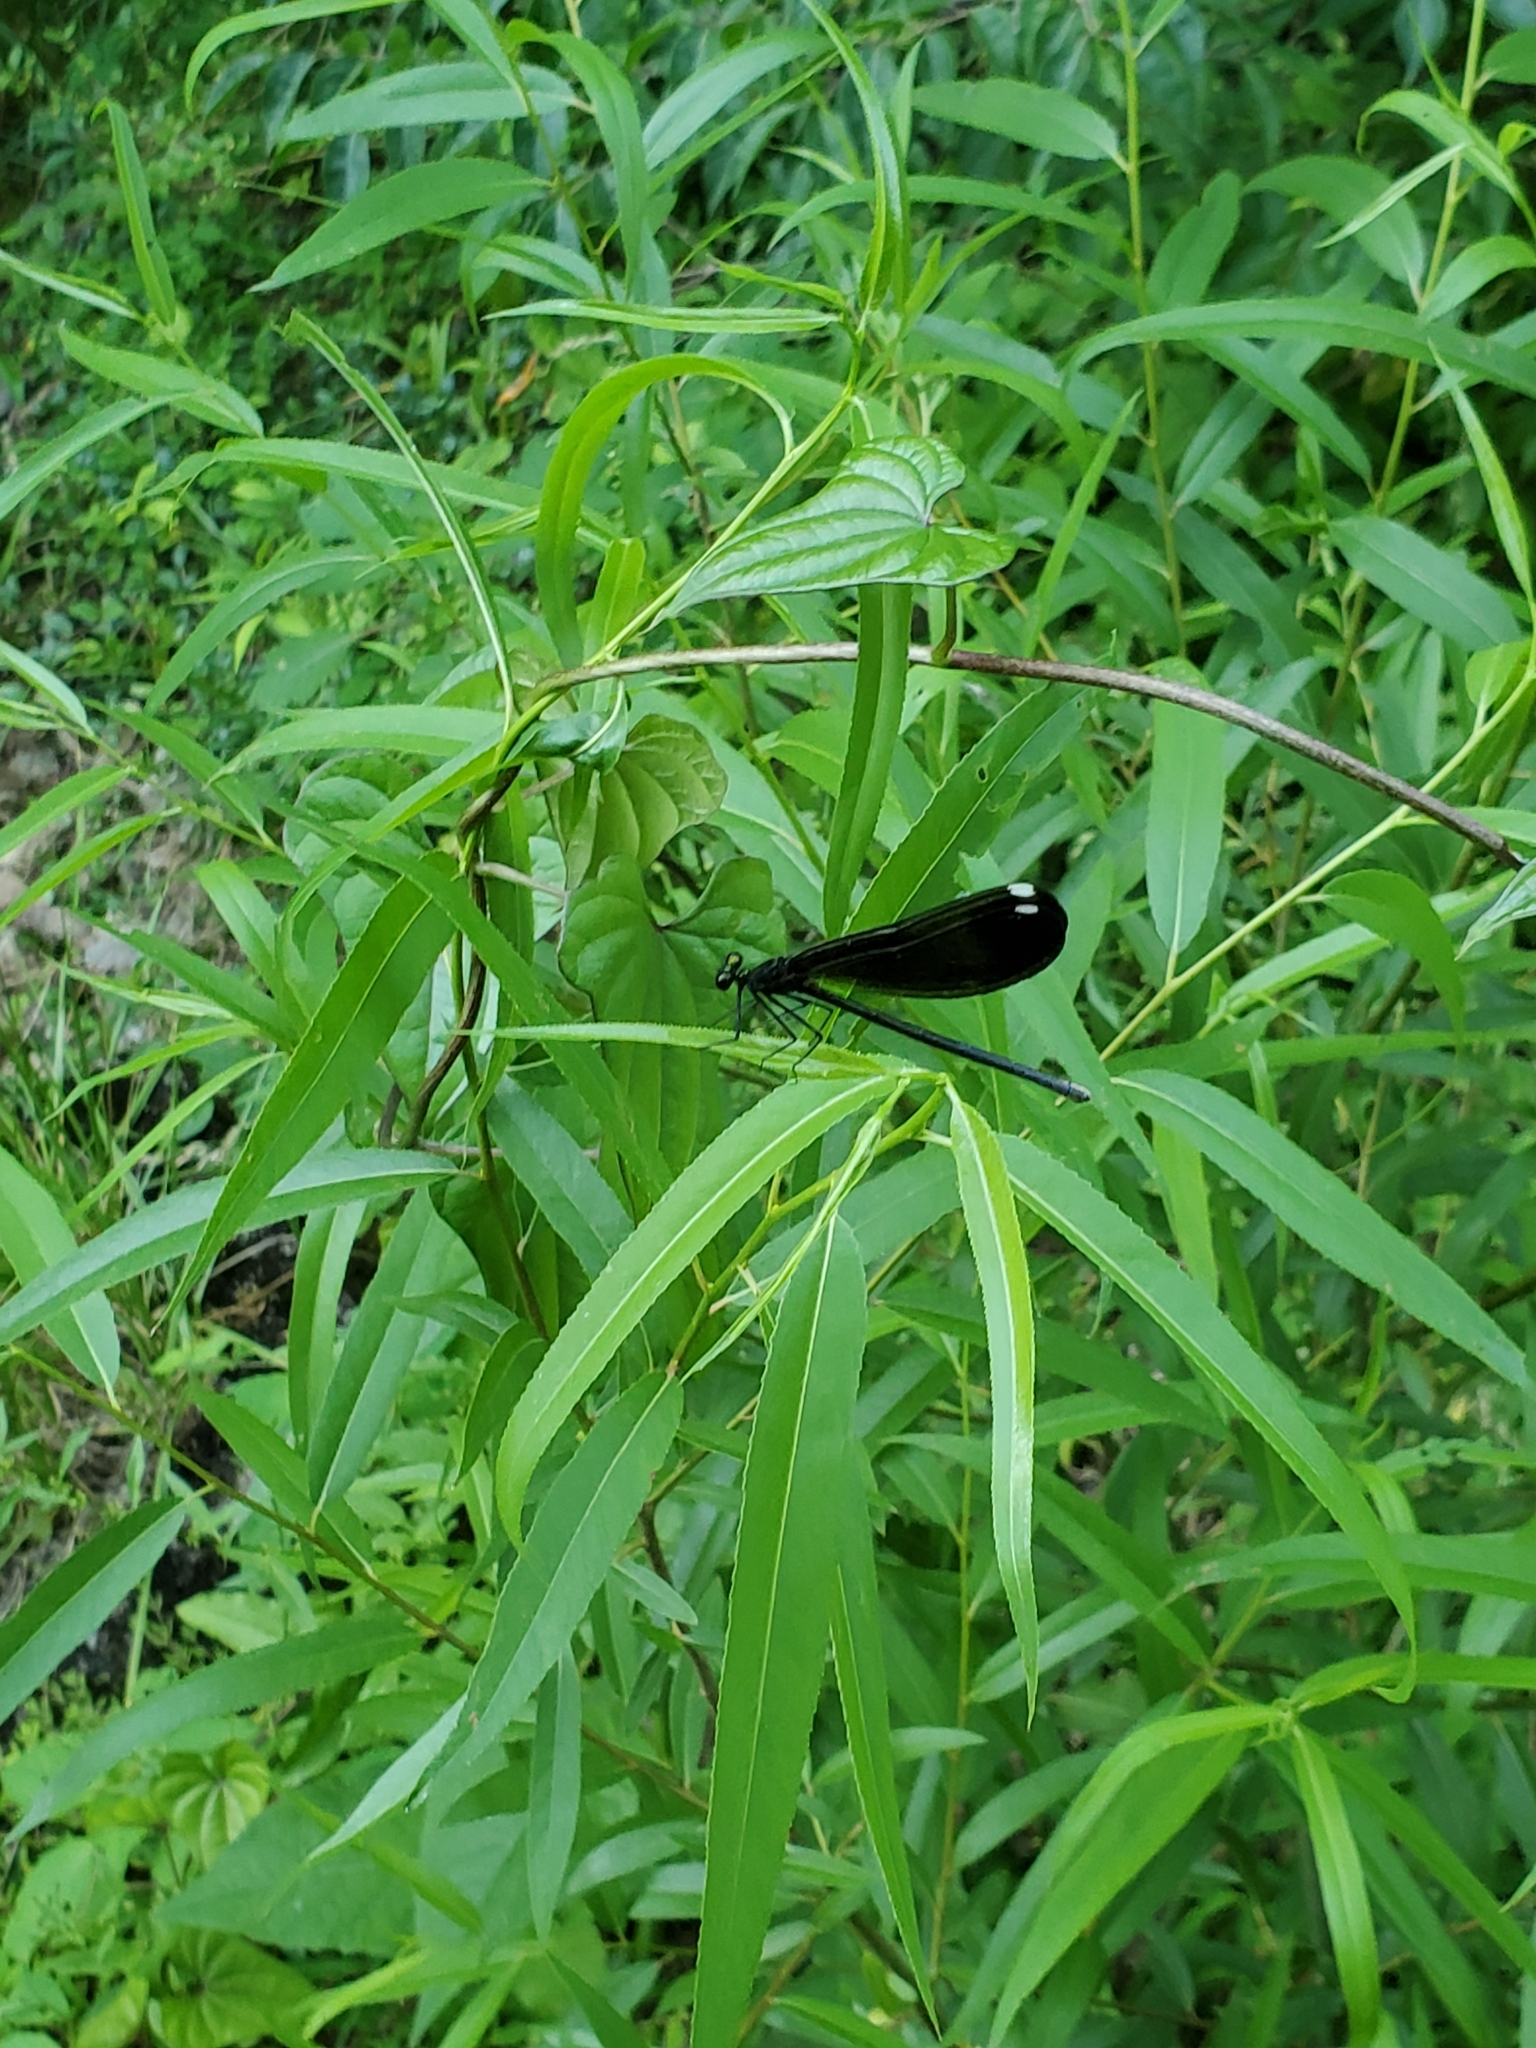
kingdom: Animalia
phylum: Arthropoda
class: Insecta
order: Odonata
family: Calopterygidae
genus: Calopteryx
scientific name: Calopteryx maculata
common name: Ebony jewelwing
